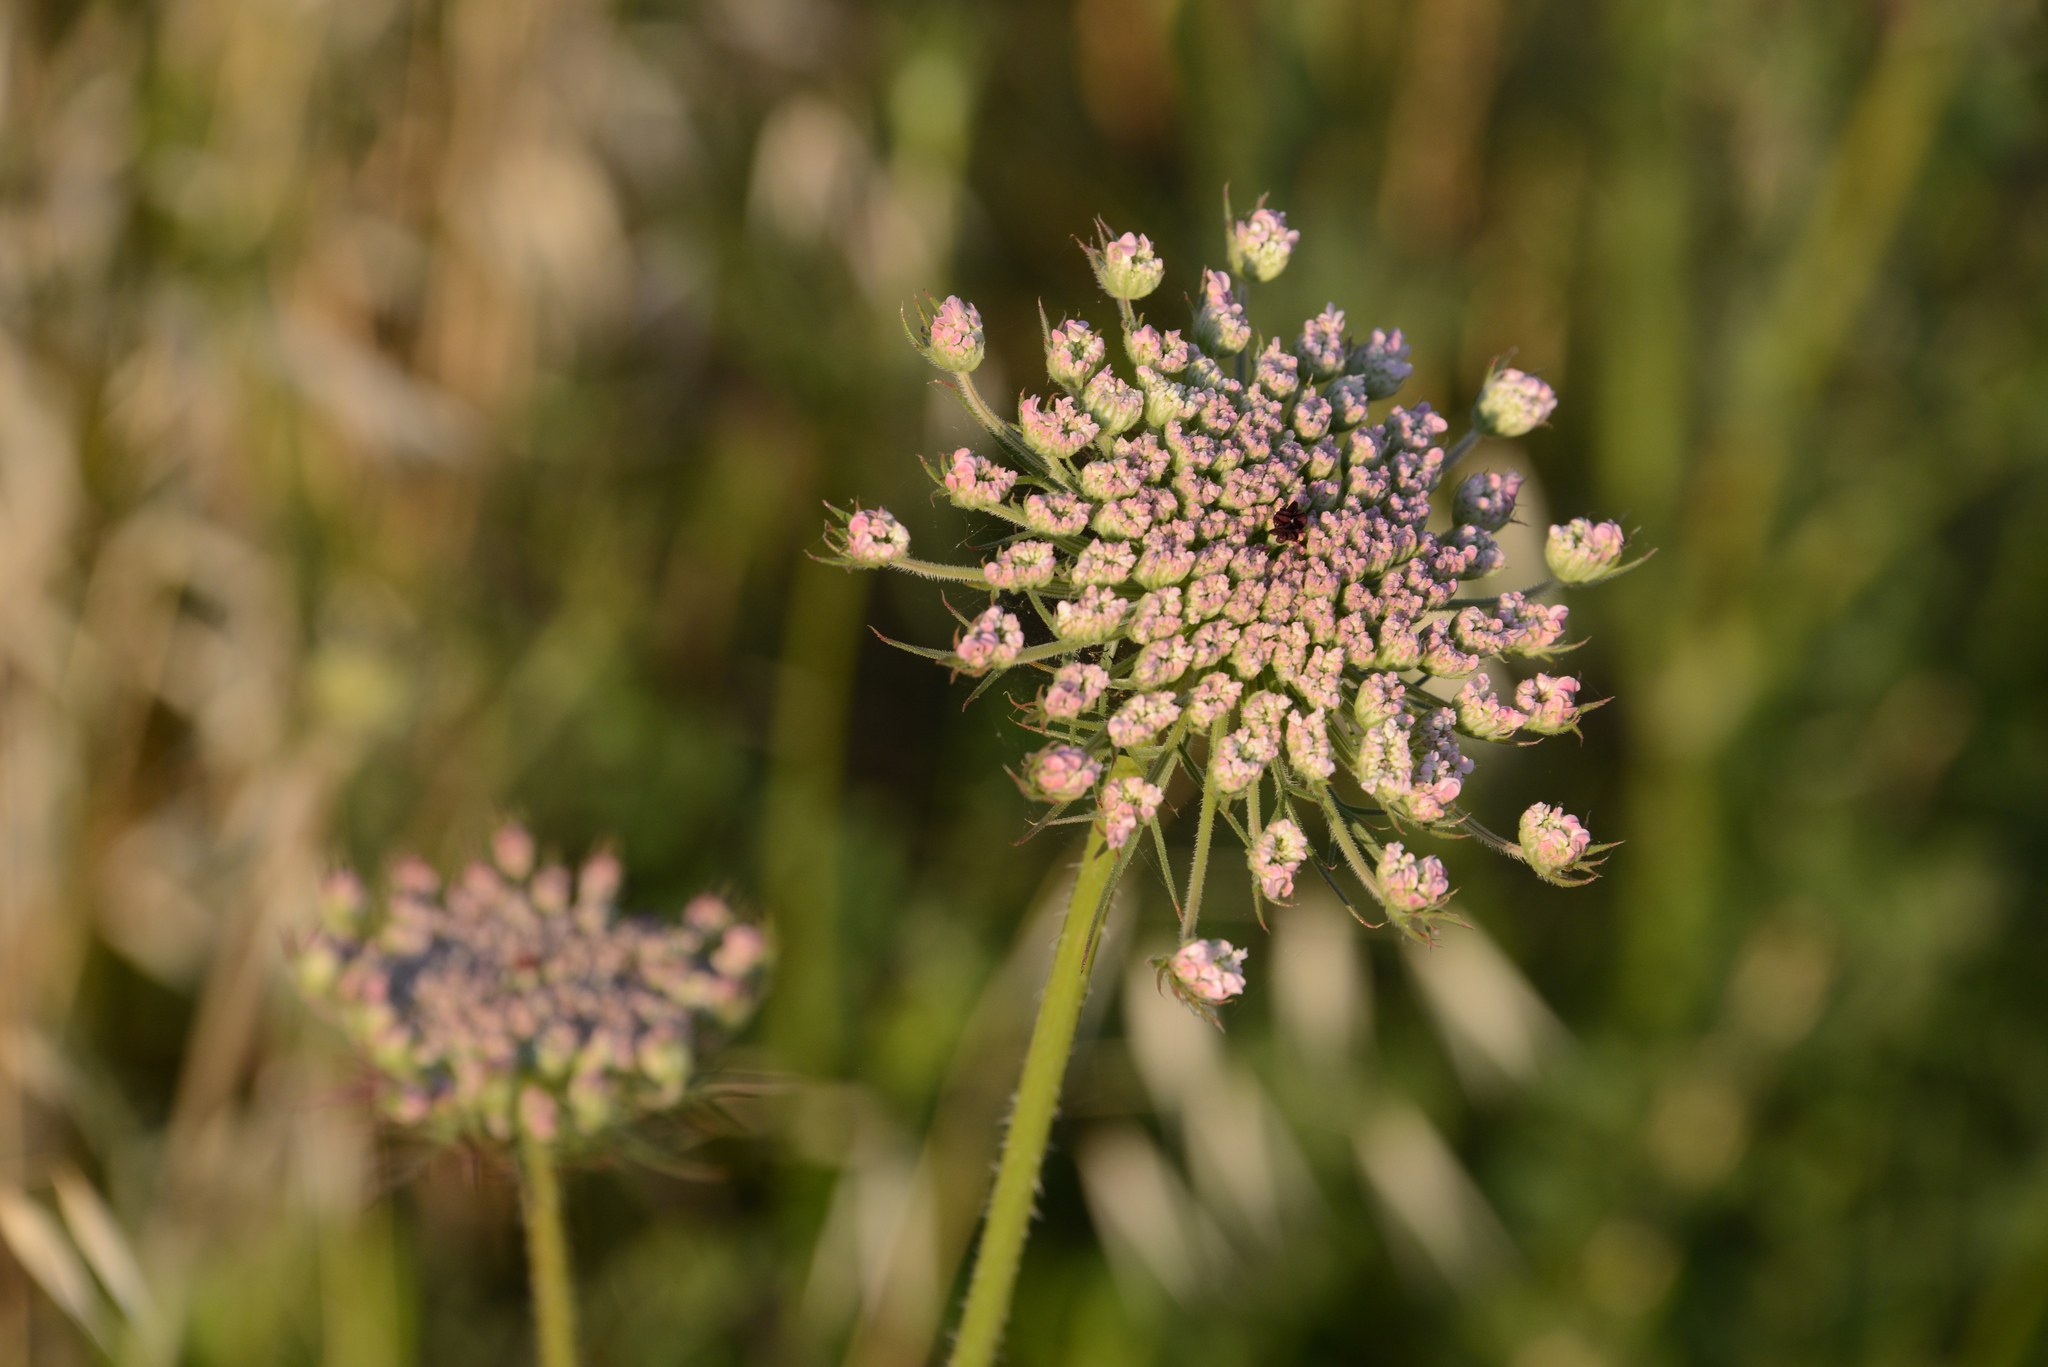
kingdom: Plantae
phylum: Tracheophyta
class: Magnoliopsida
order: Apiales
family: Apiaceae
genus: Daucus
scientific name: Daucus carota
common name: Wild carrot
